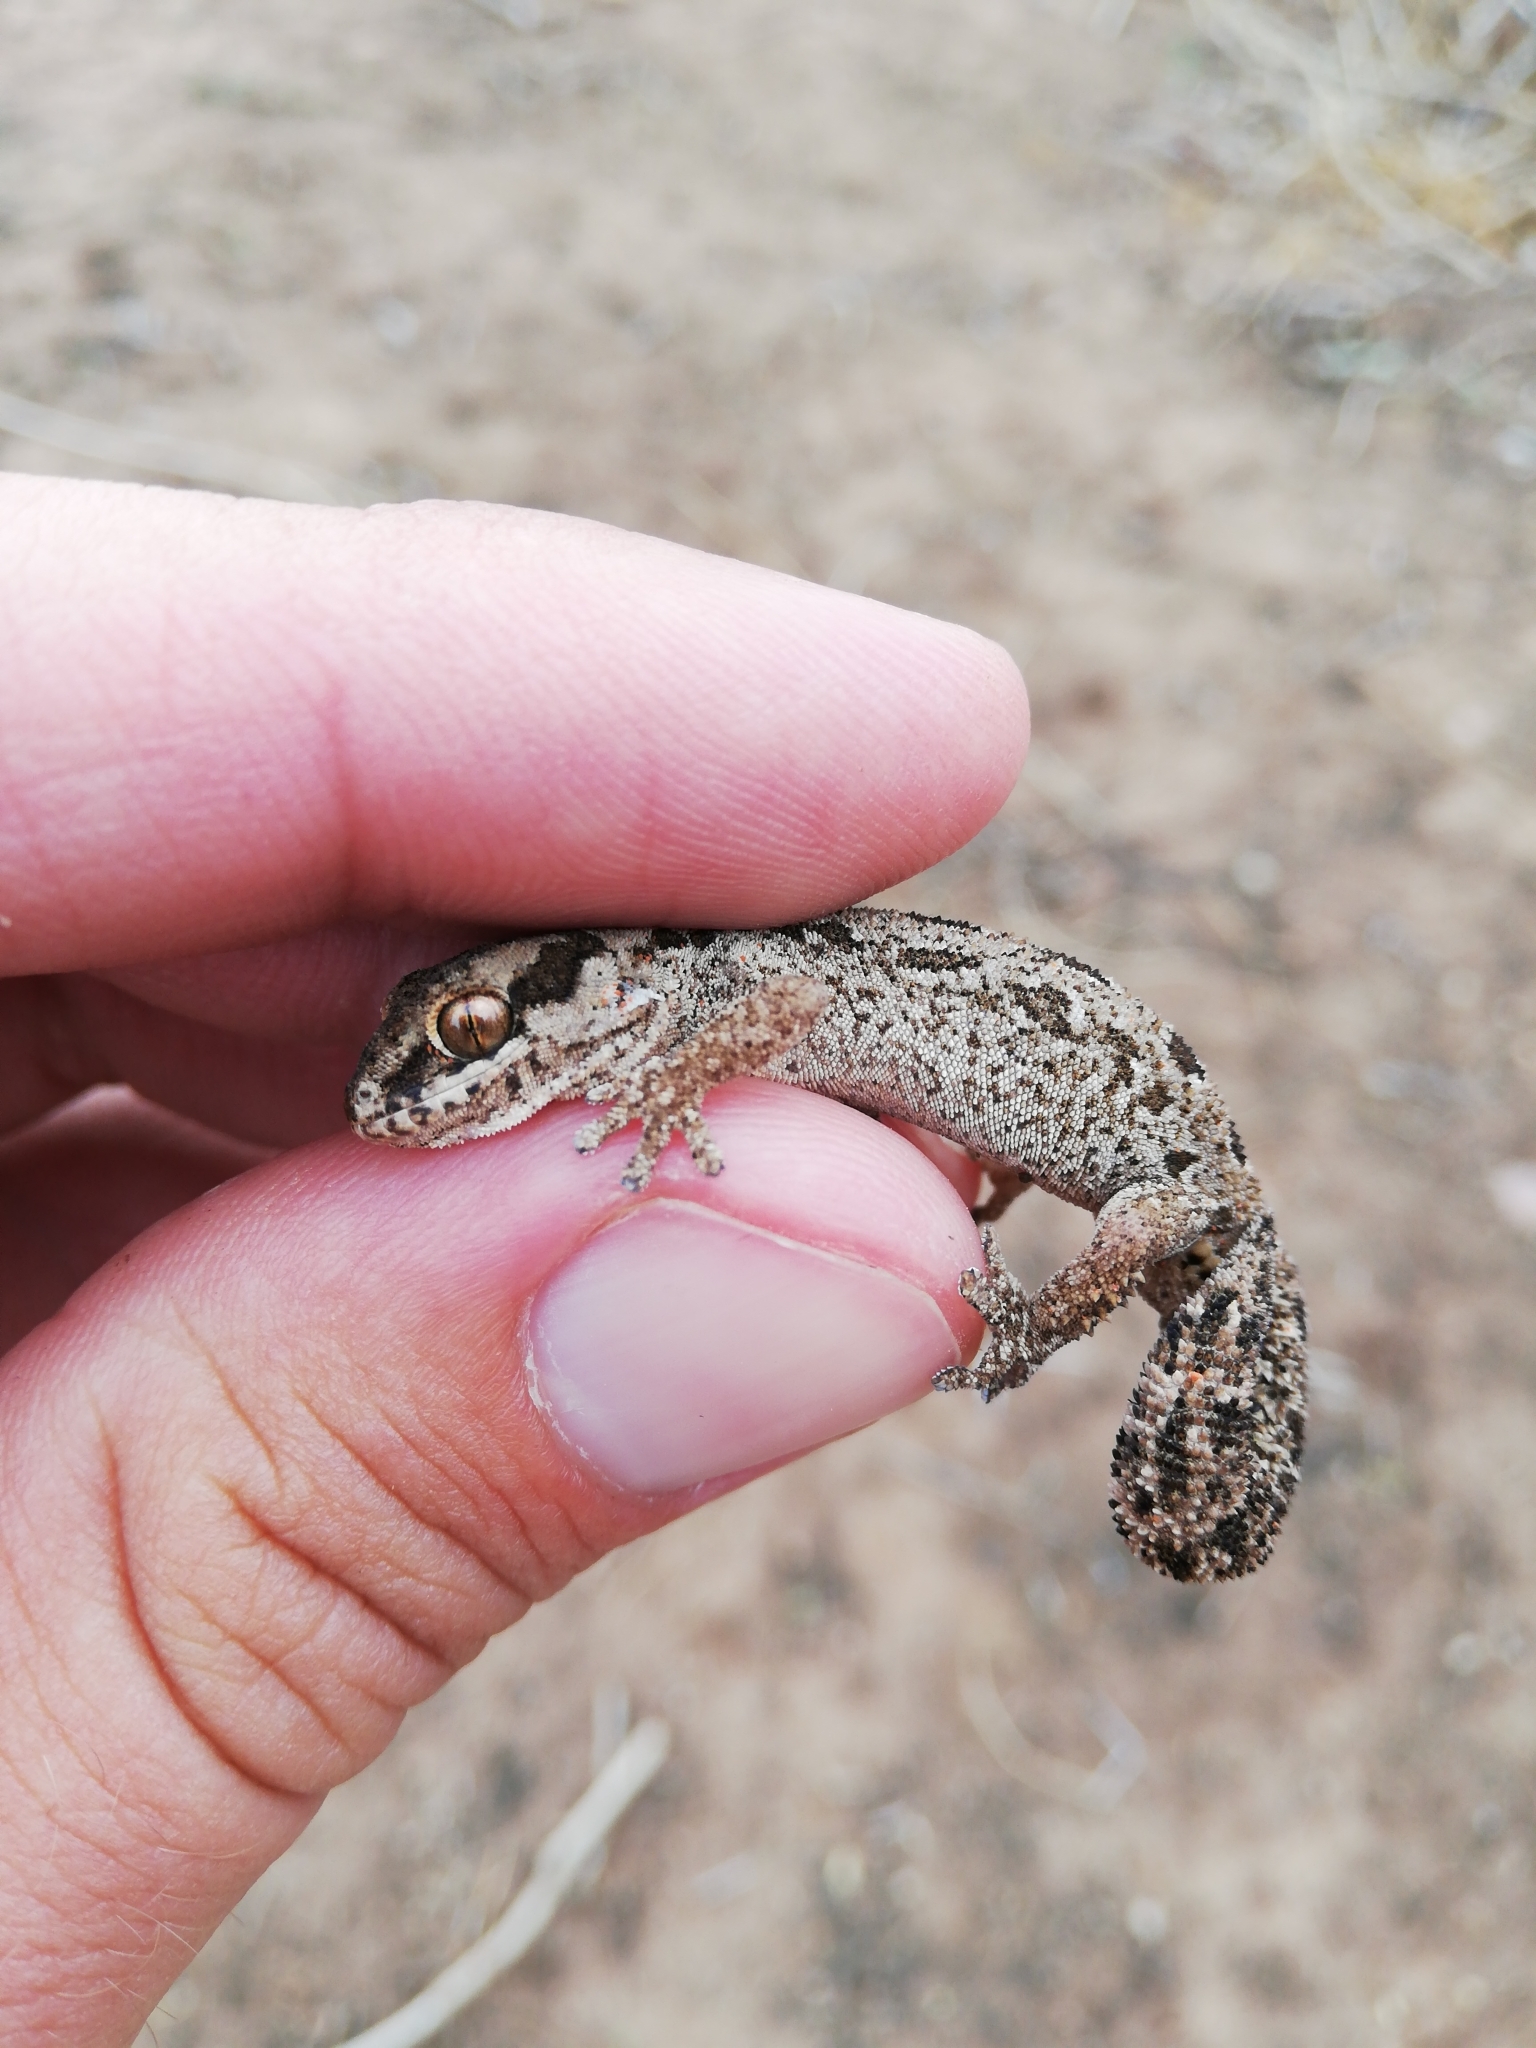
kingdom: Animalia
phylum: Chordata
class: Squamata
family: Gekkonidae
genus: Pachydactylus
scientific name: Pachydactylus maculatus
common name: Spotted thick-toed gecko
